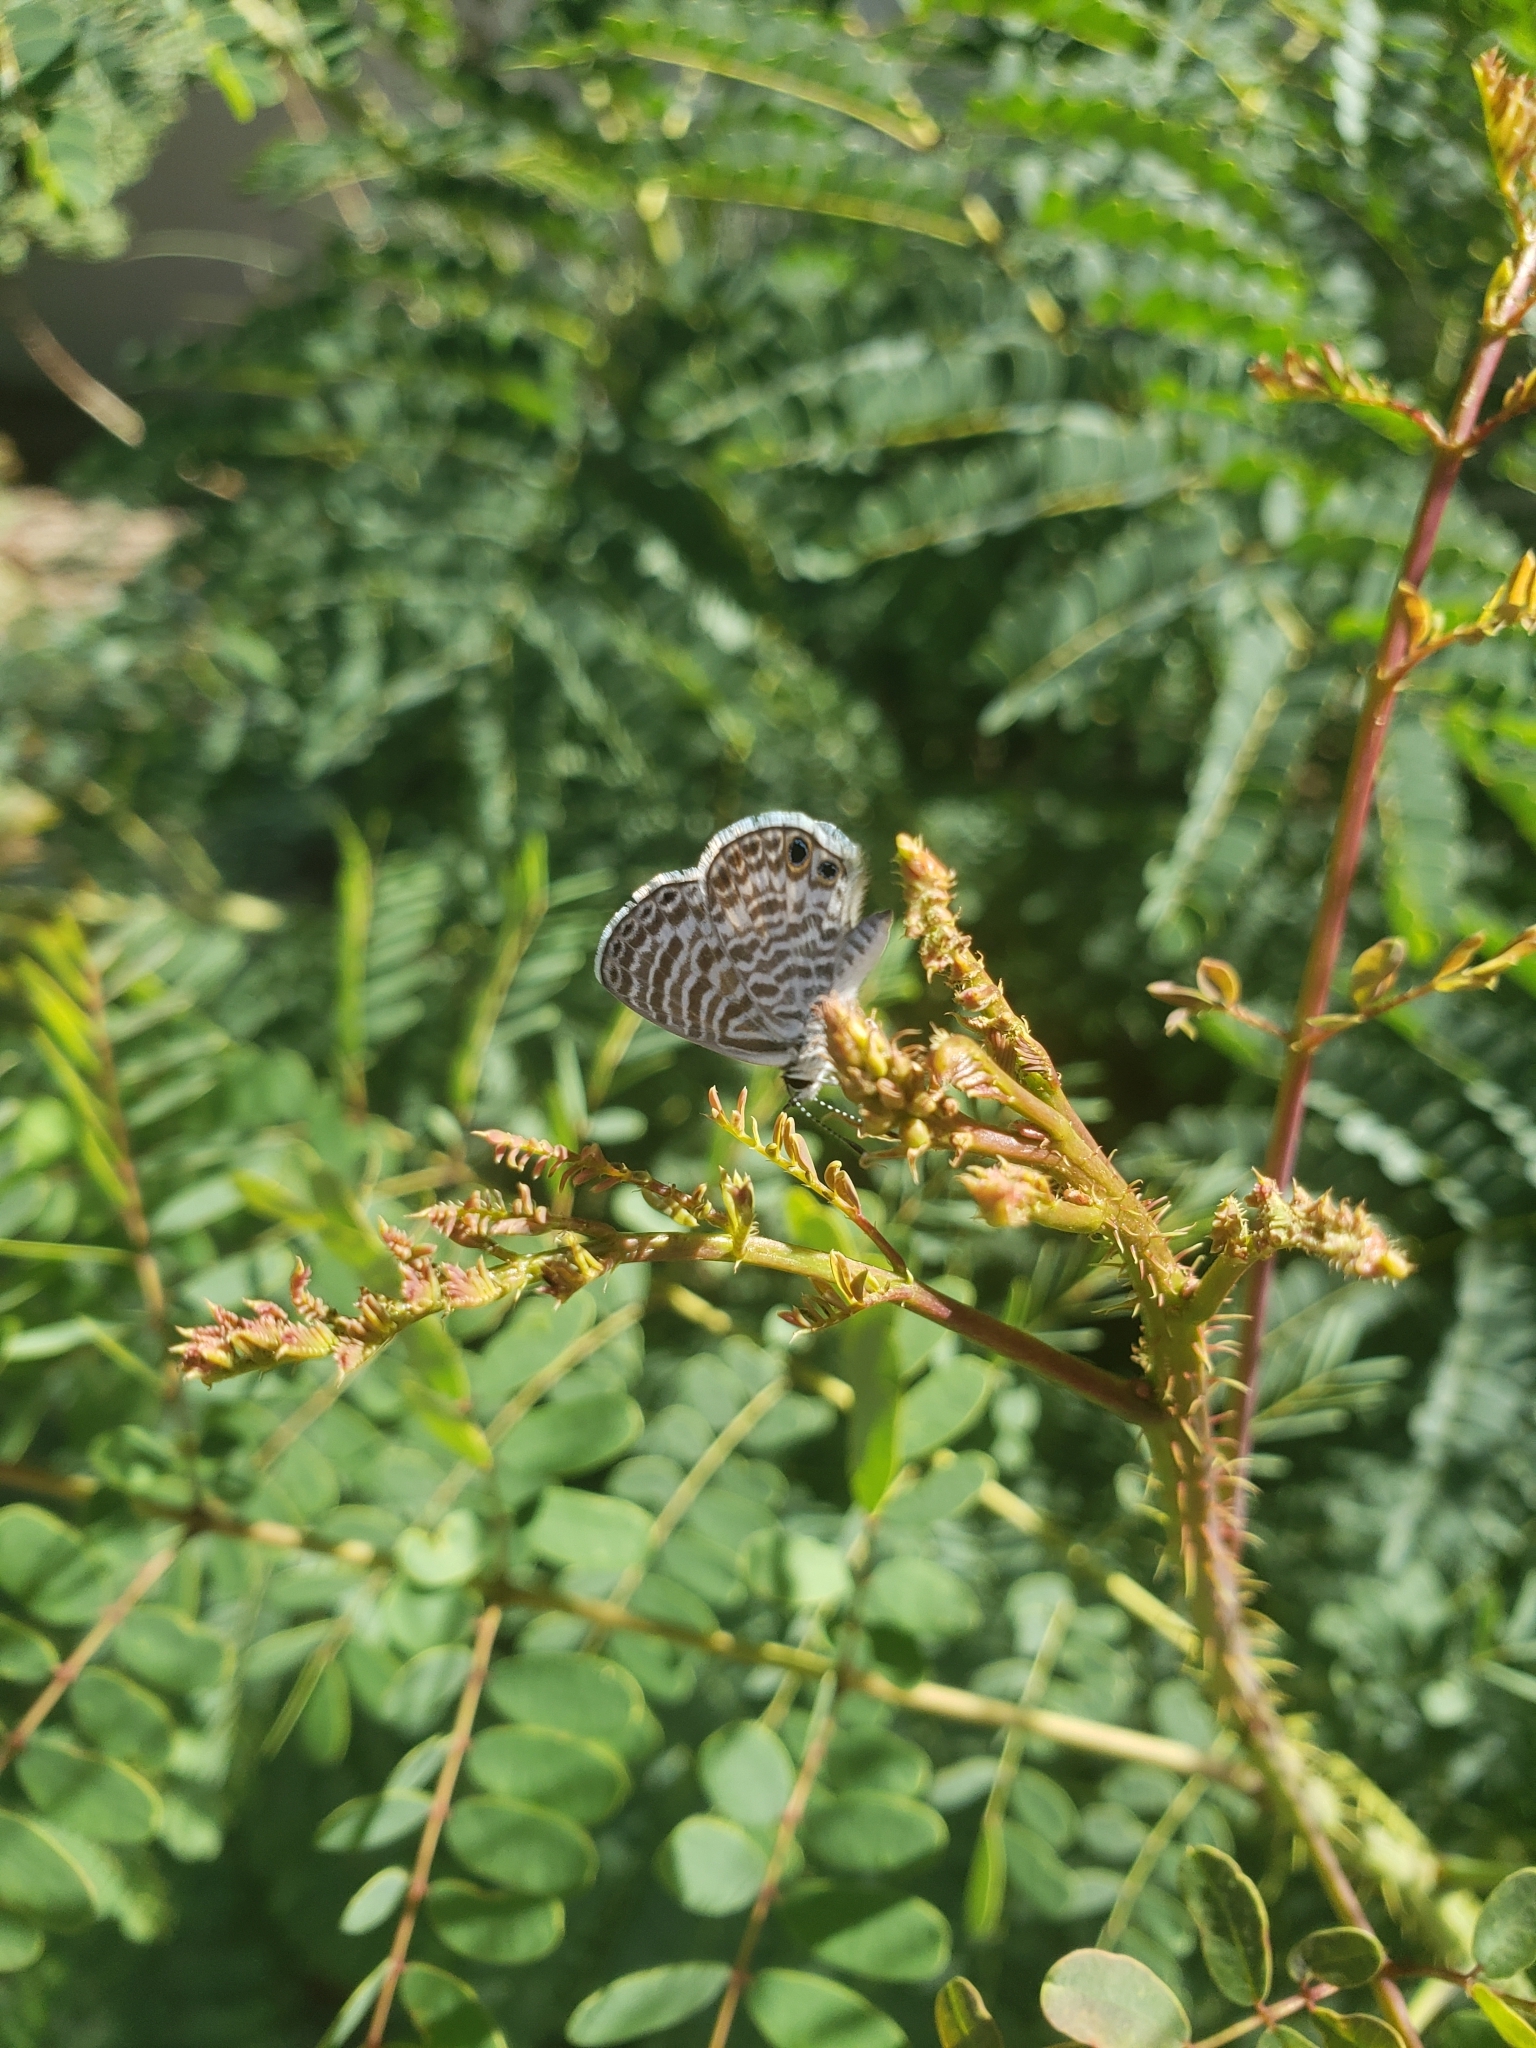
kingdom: Animalia
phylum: Arthropoda
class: Insecta
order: Lepidoptera
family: Lycaenidae
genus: Leptotes
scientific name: Leptotes marina
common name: Marine blue
